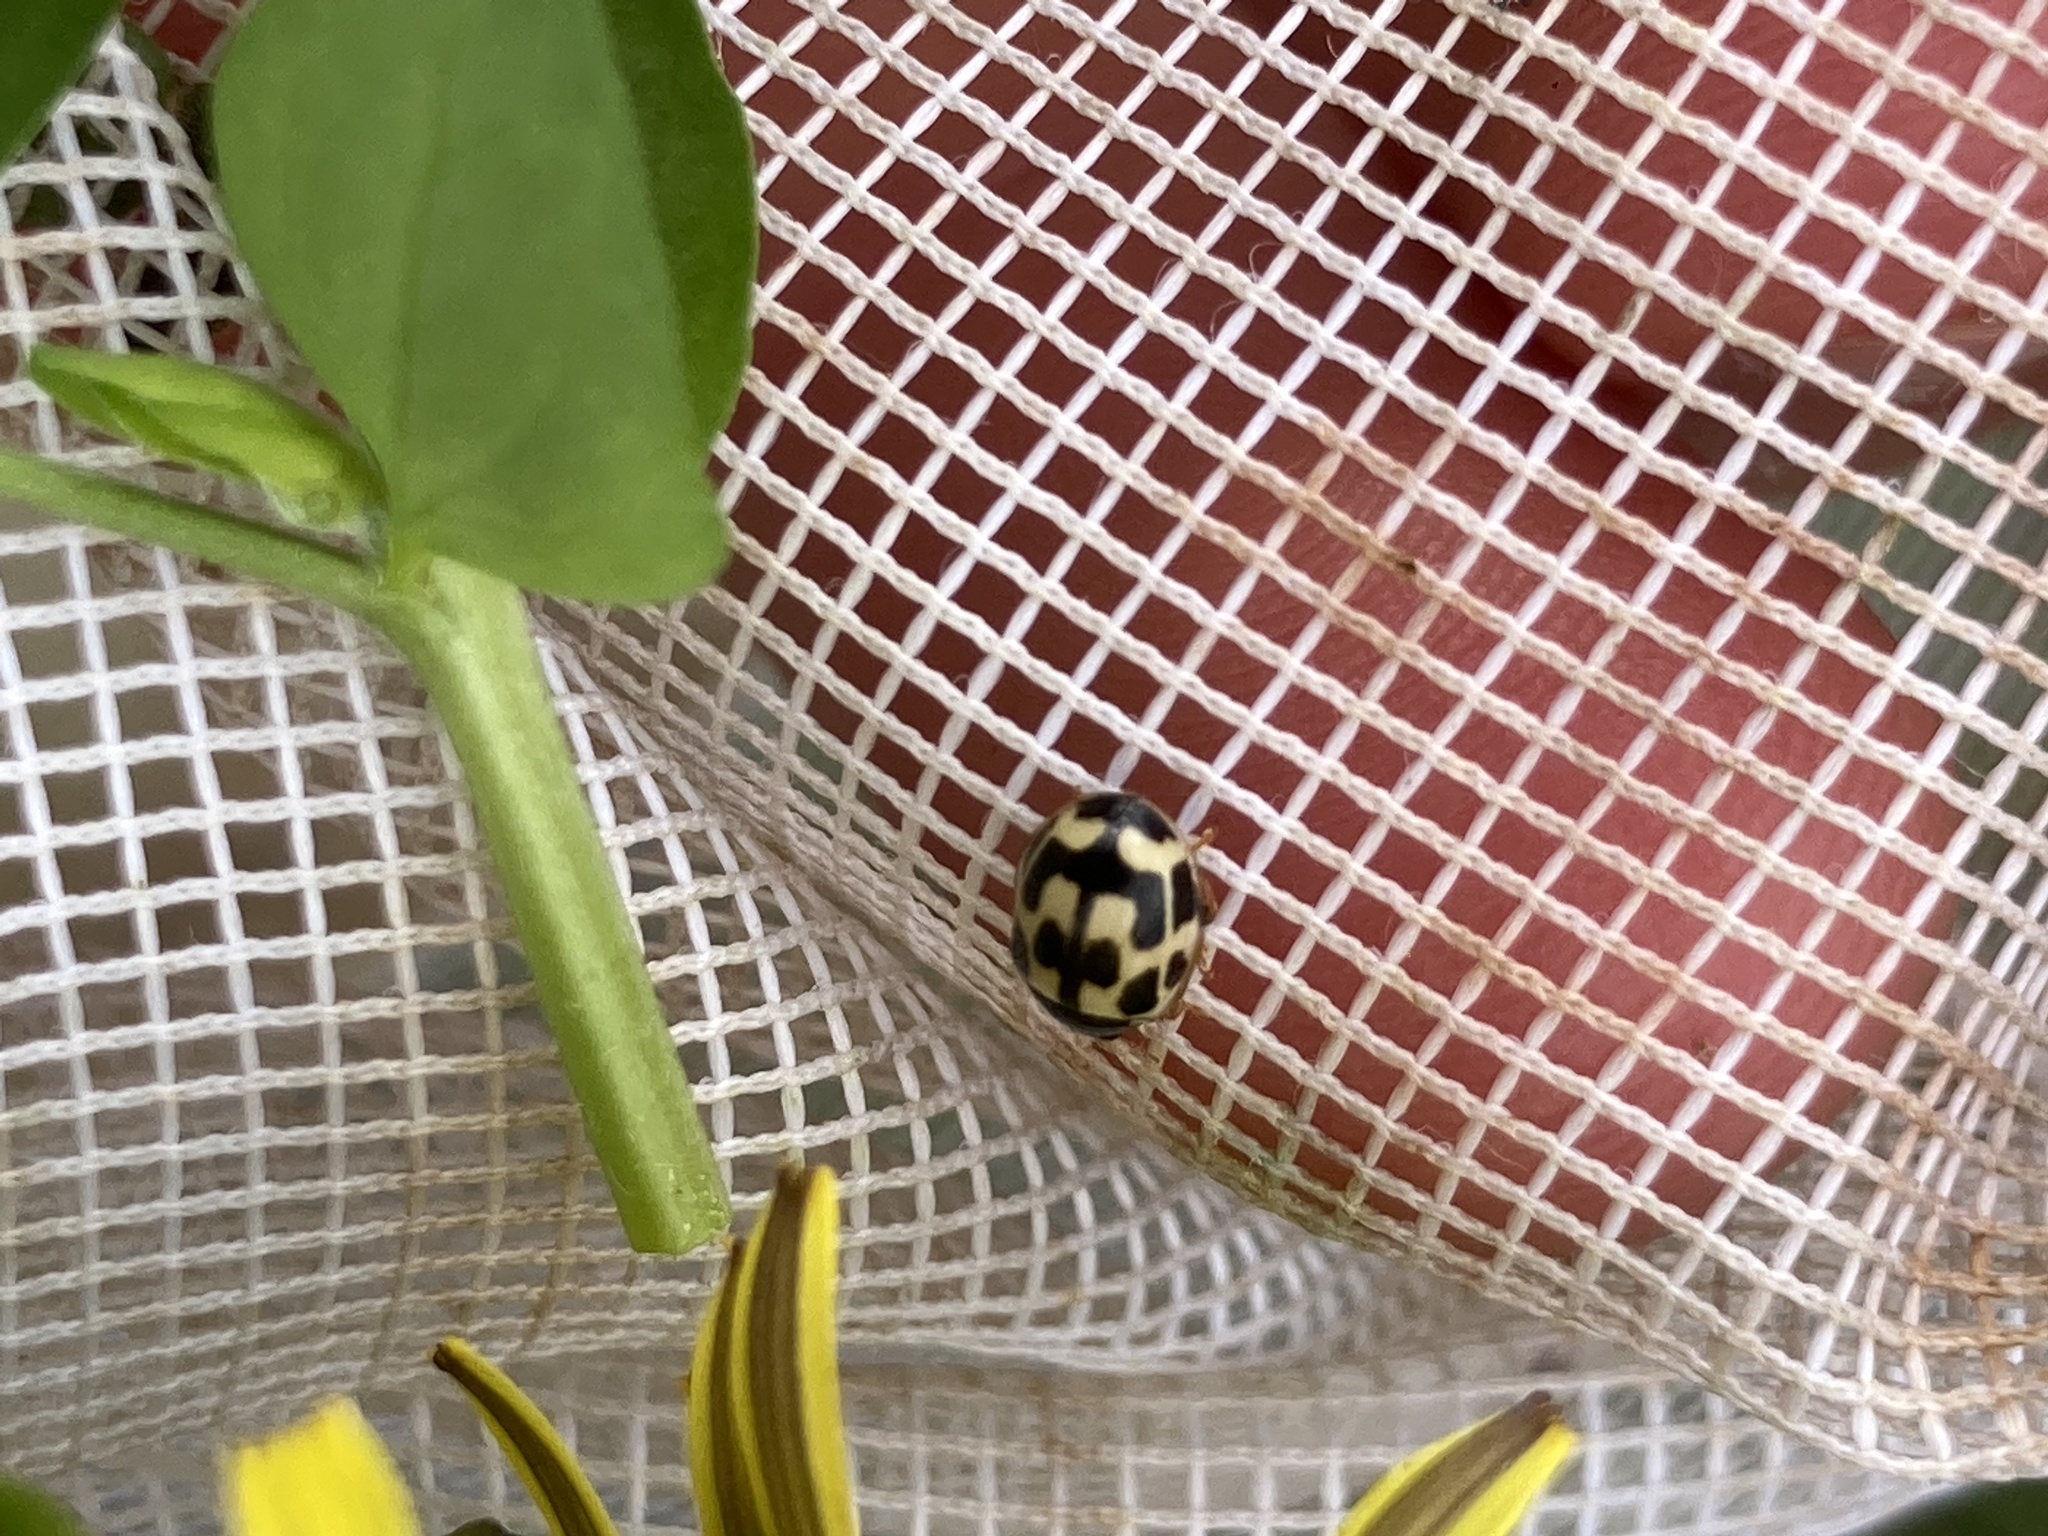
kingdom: Animalia
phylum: Arthropoda
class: Insecta
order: Coleoptera
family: Coccinellidae
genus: Propylaea
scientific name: Propylaea quatuordecimpunctata
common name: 14-spotted ladybird beetle
